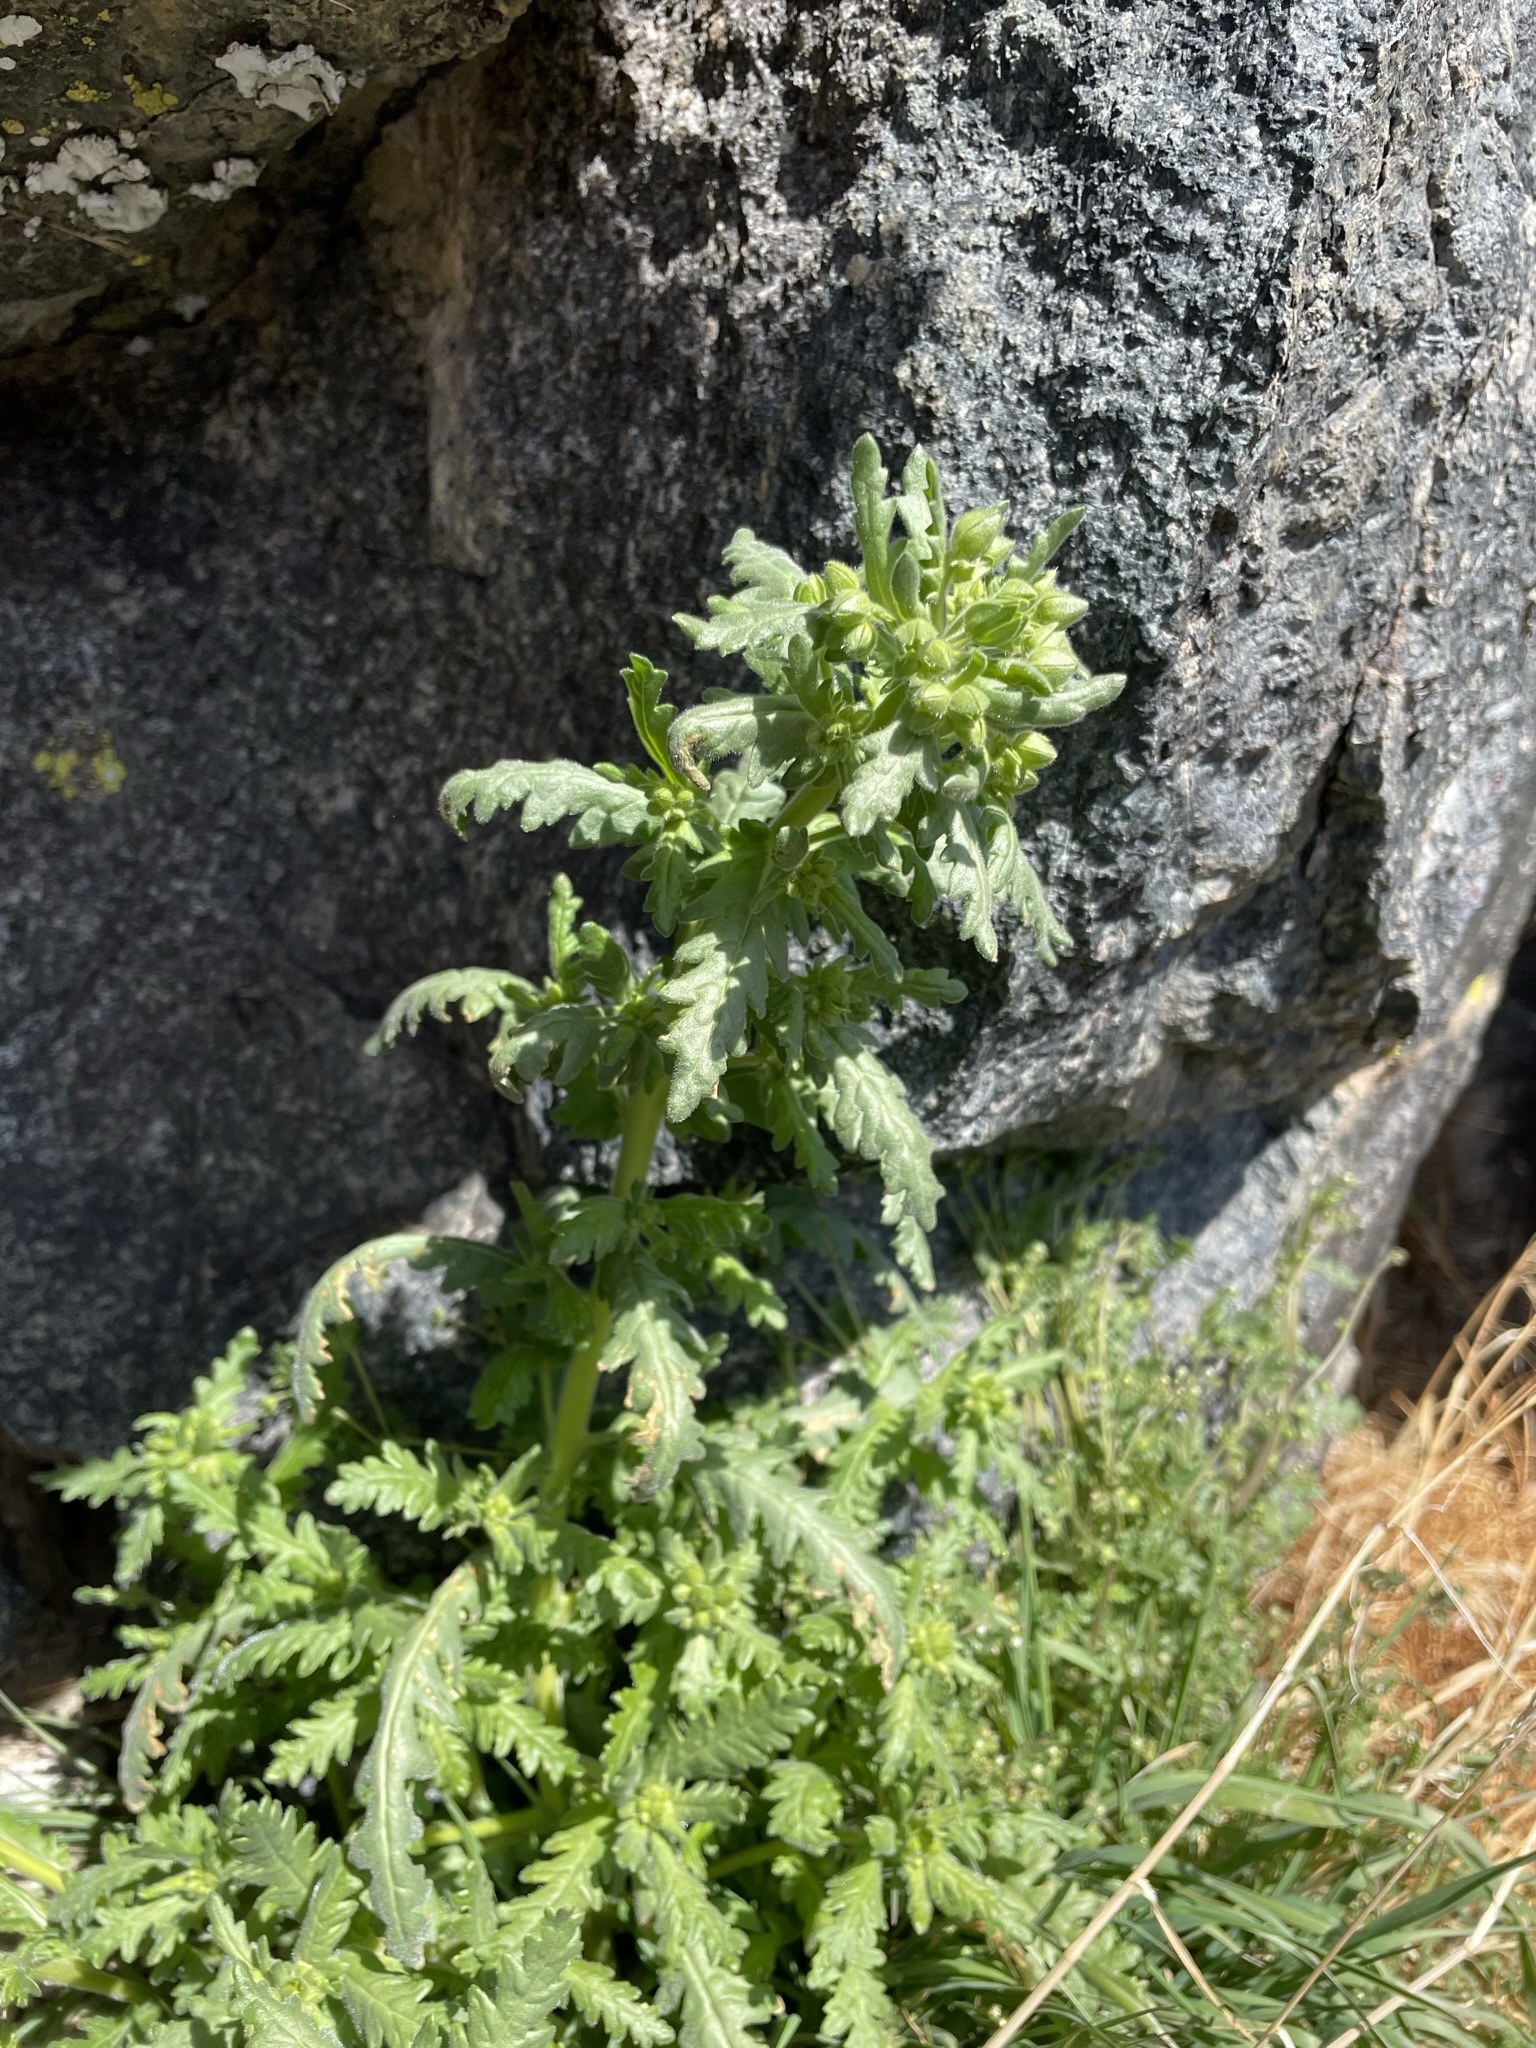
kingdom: Plantae
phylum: Tracheophyta
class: Magnoliopsida
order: Boraginales
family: Hydrophyllaceae
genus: Emmenanthe
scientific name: Emmenanthe penduliflora
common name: Whispering-bells
